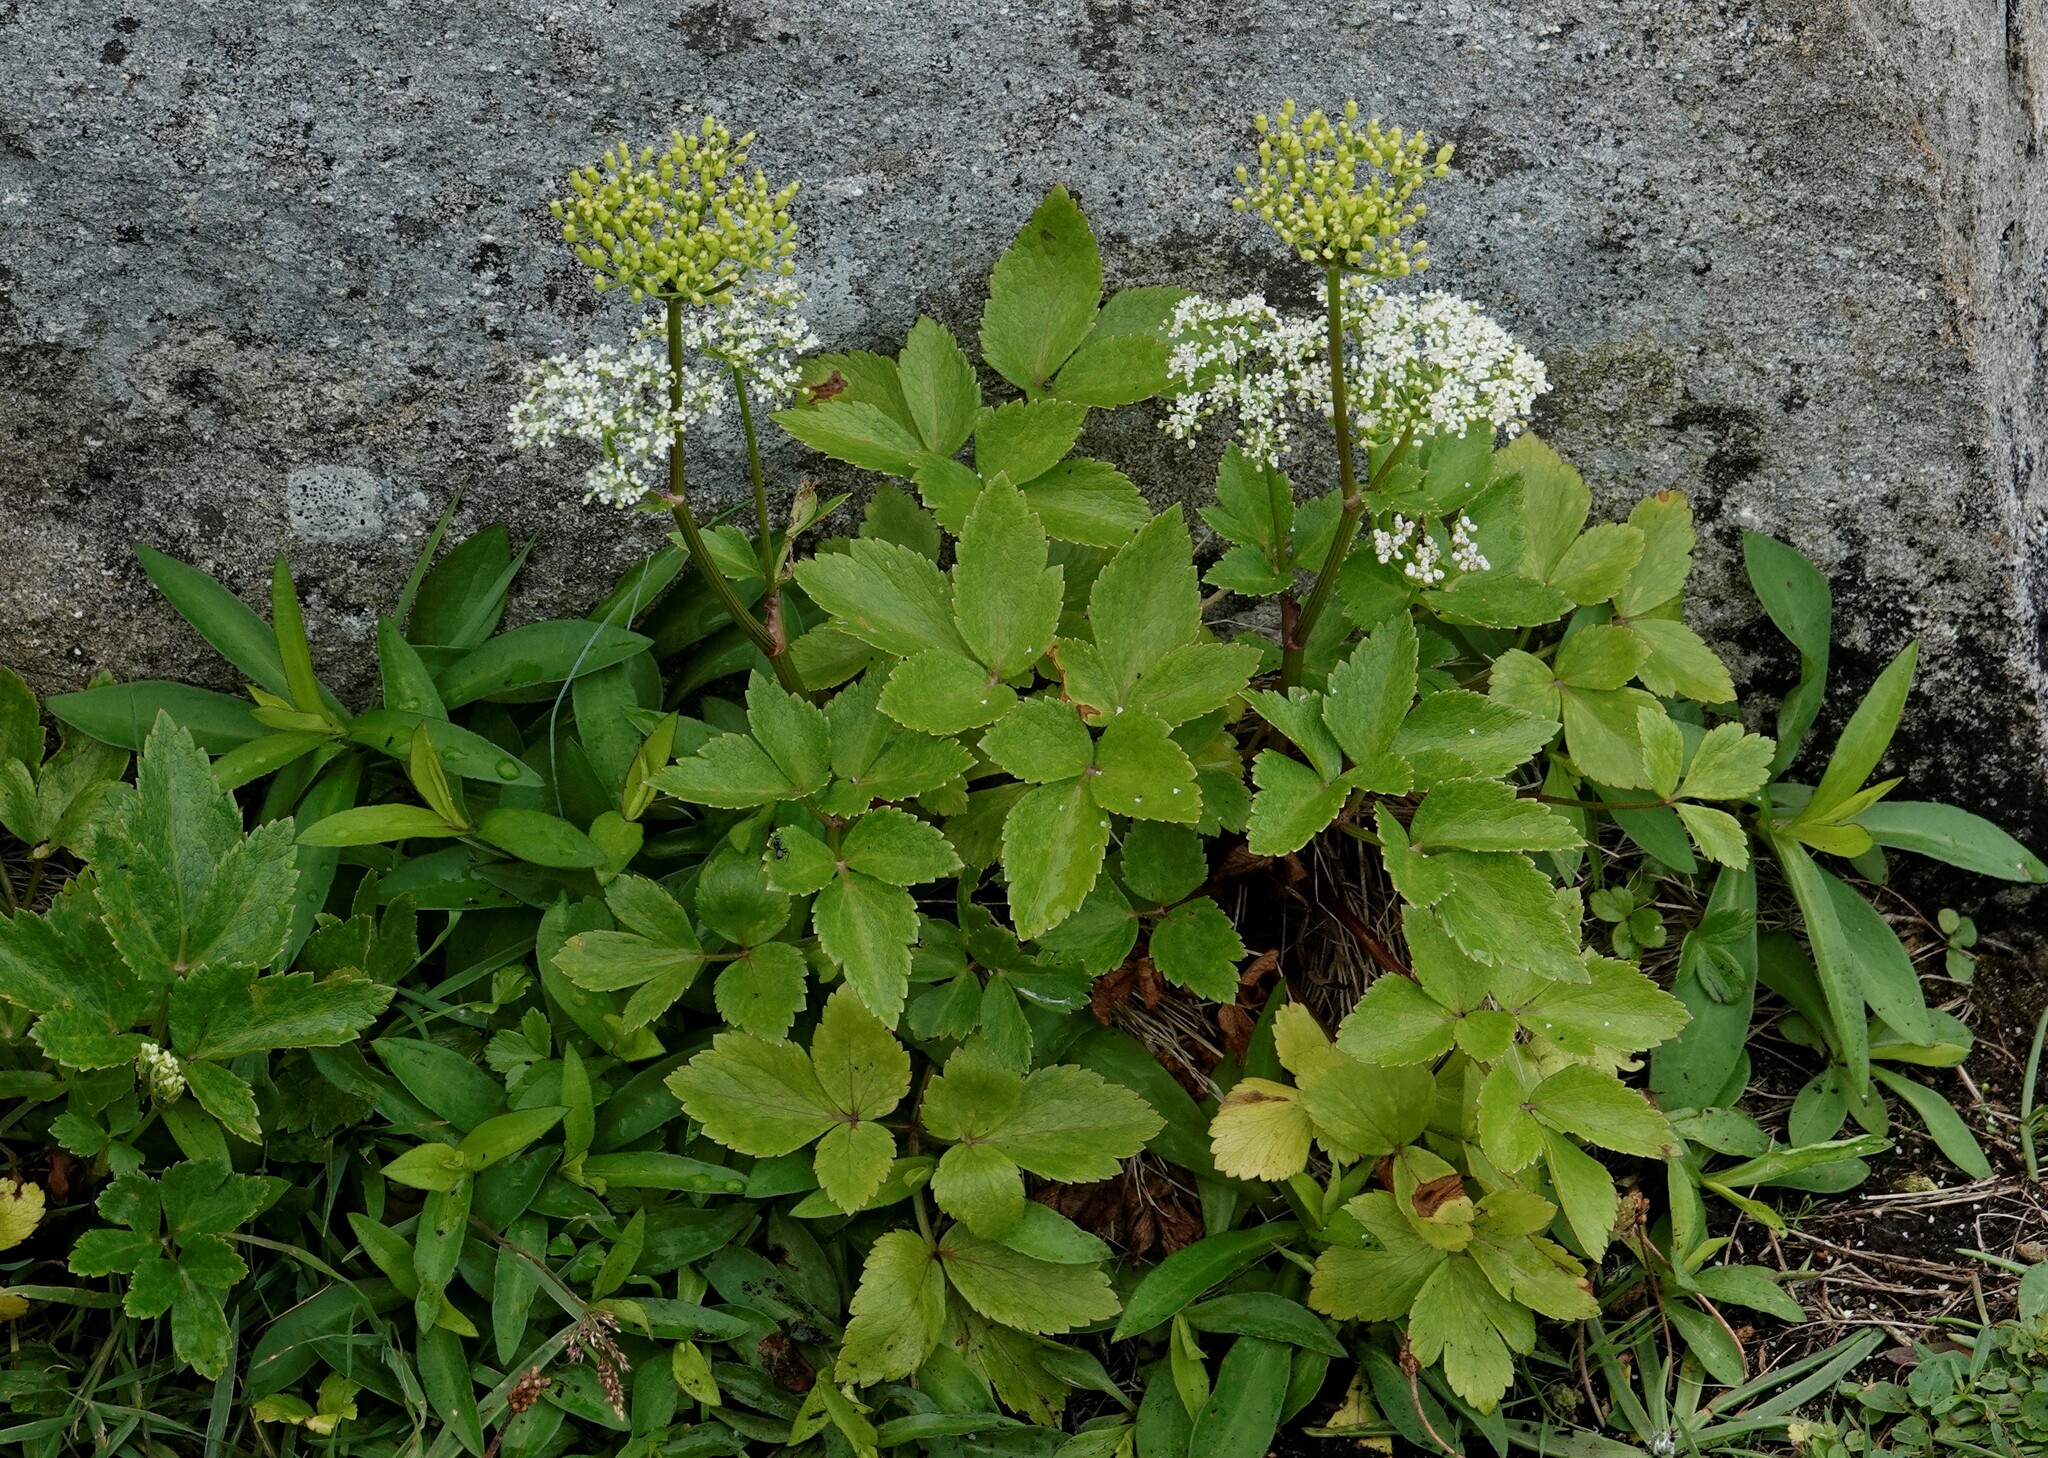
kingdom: Plantae
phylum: Tracheophyta
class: Magnoliopsida
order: Apiales
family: Apiaceae
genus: Ligusticum
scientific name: Ligusticum scothicum
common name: Beach lovage
